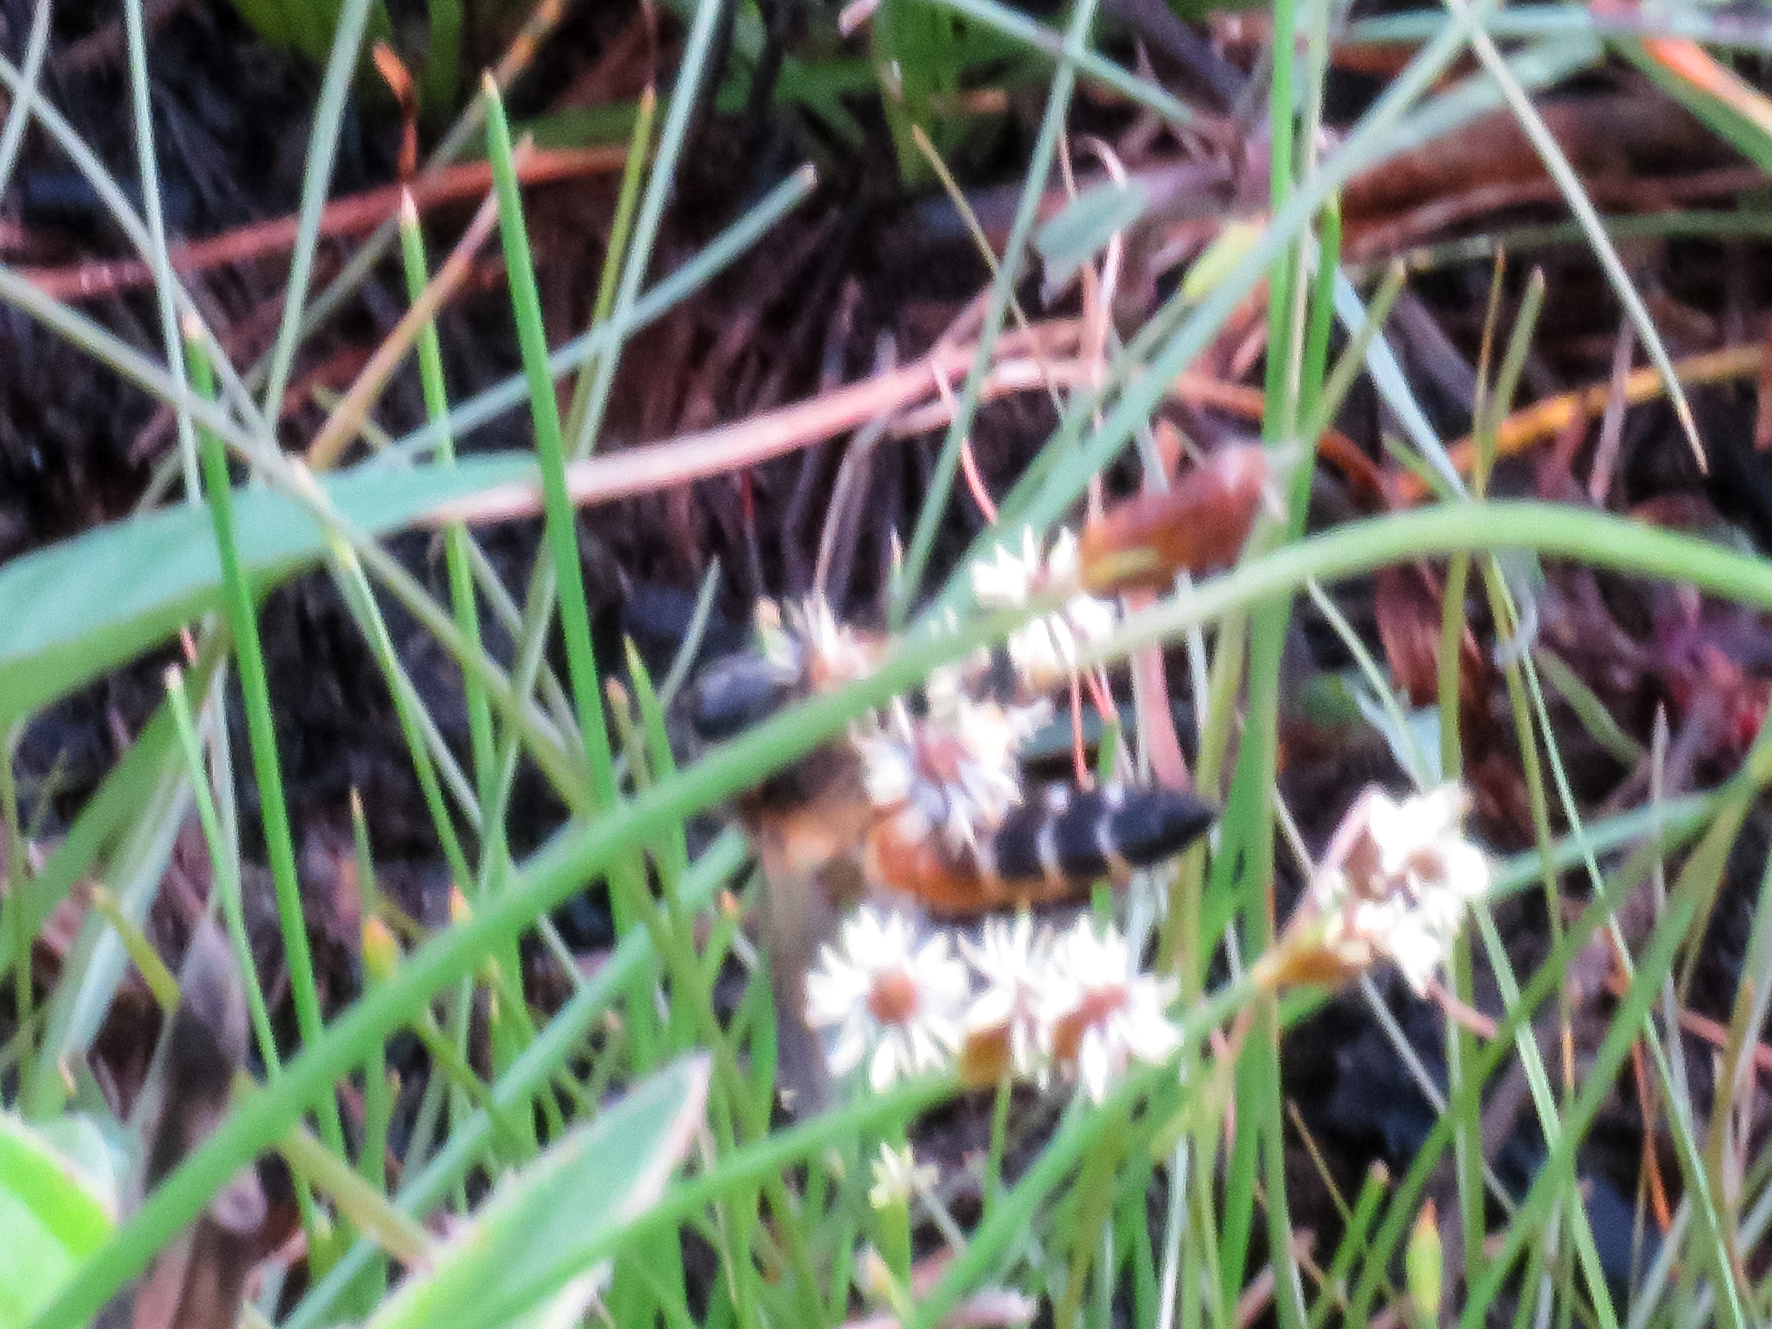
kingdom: Animalia
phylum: Arthropoda
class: Insecta
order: Hymenoptera
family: Apidae
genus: Apis
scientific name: Apis dorsata
